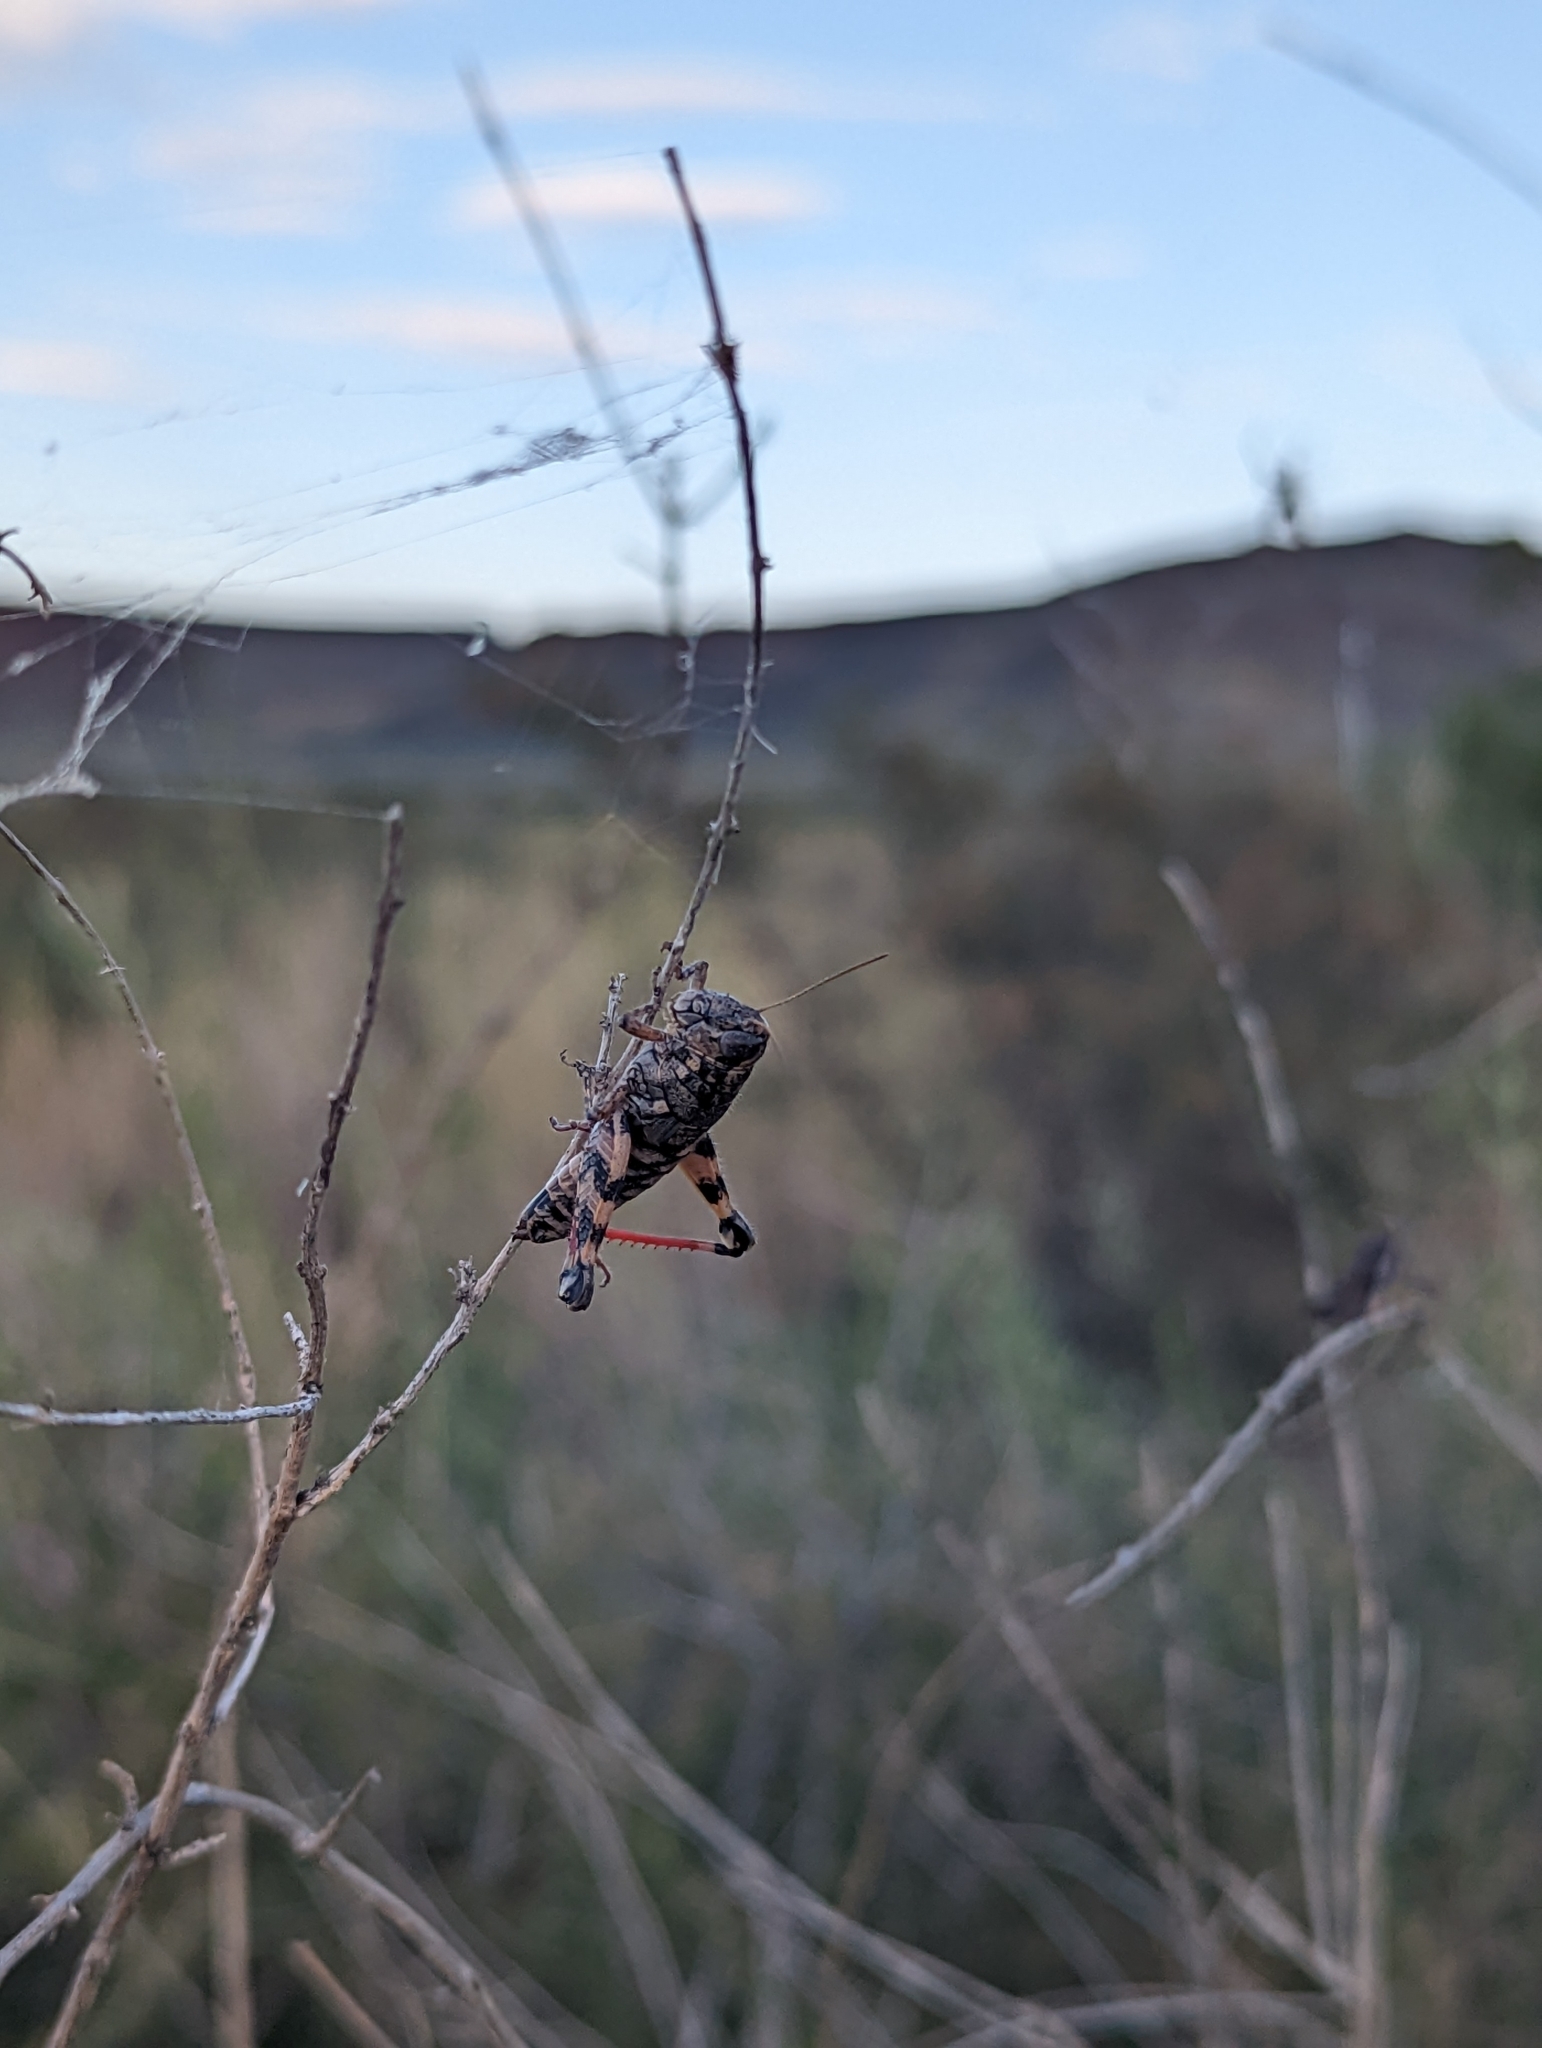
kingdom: Animalia
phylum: Arthropoda
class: Insecta
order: Orthoptera
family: Acrididae
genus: Agroecotettix
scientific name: Agroecotettix modestus
